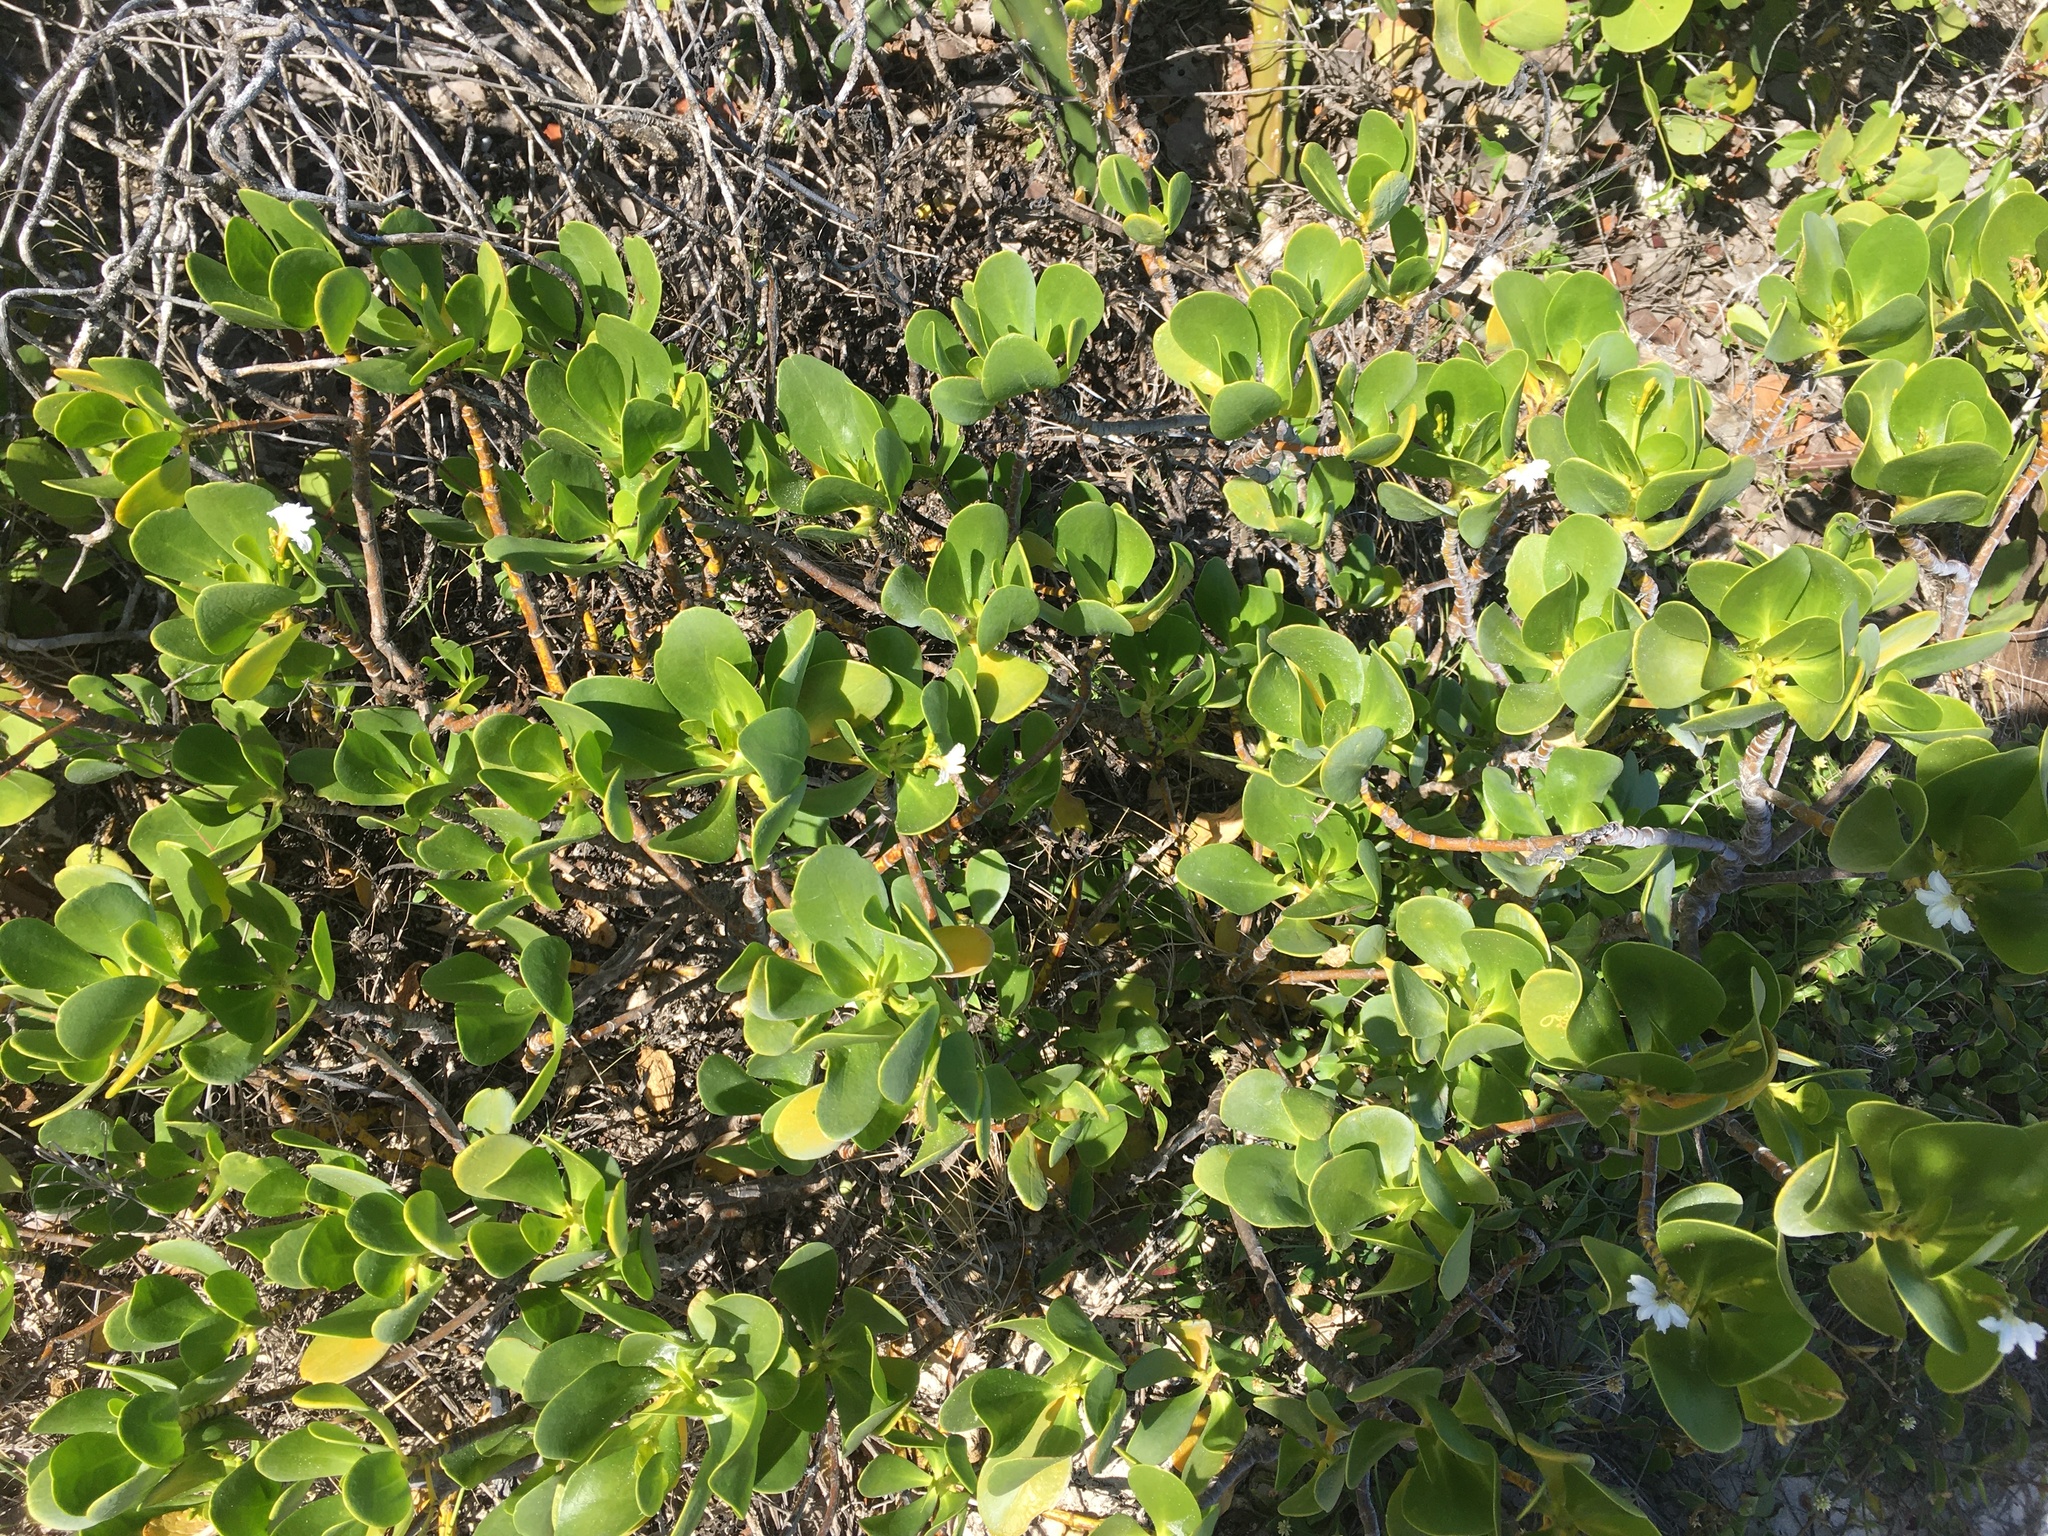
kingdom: Plantae
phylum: Tracheophyta
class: Magnoliopsida
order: Asterales
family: Goodeniaceae
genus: Scaevola
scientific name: Scaevola plumieri
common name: Gull feed
